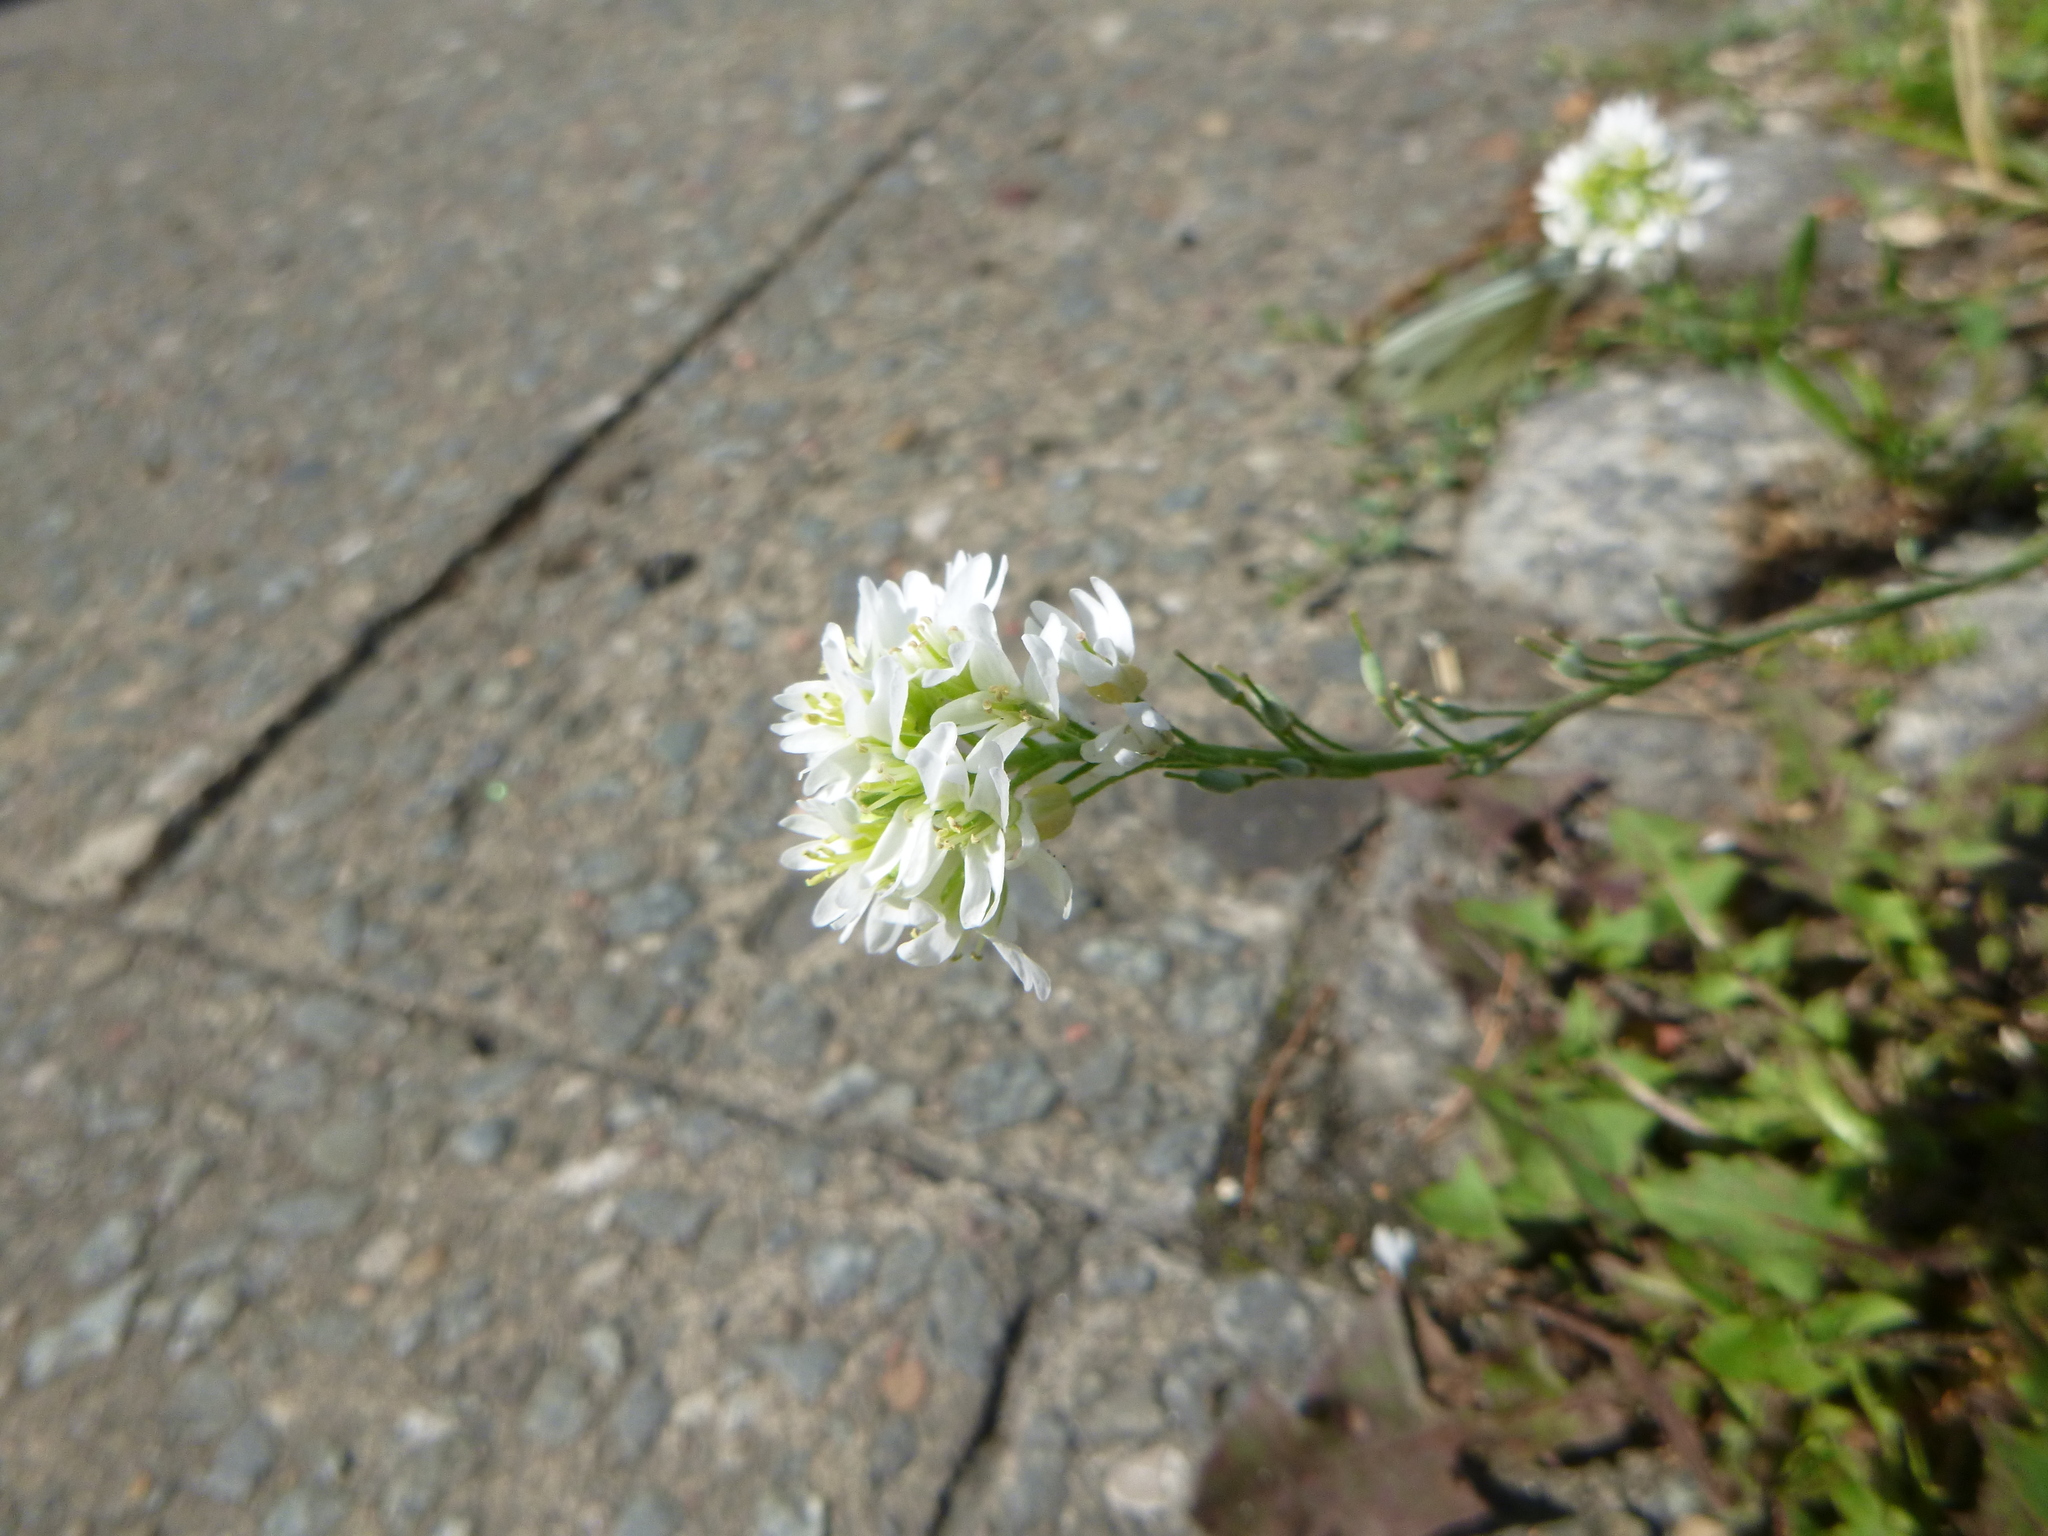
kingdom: Plantae
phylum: Tracheophyta
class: Magnoliopsida
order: Brassicales
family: Brassicaceae
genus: Berteroa
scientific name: Berteroa incana
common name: Hoary alison
